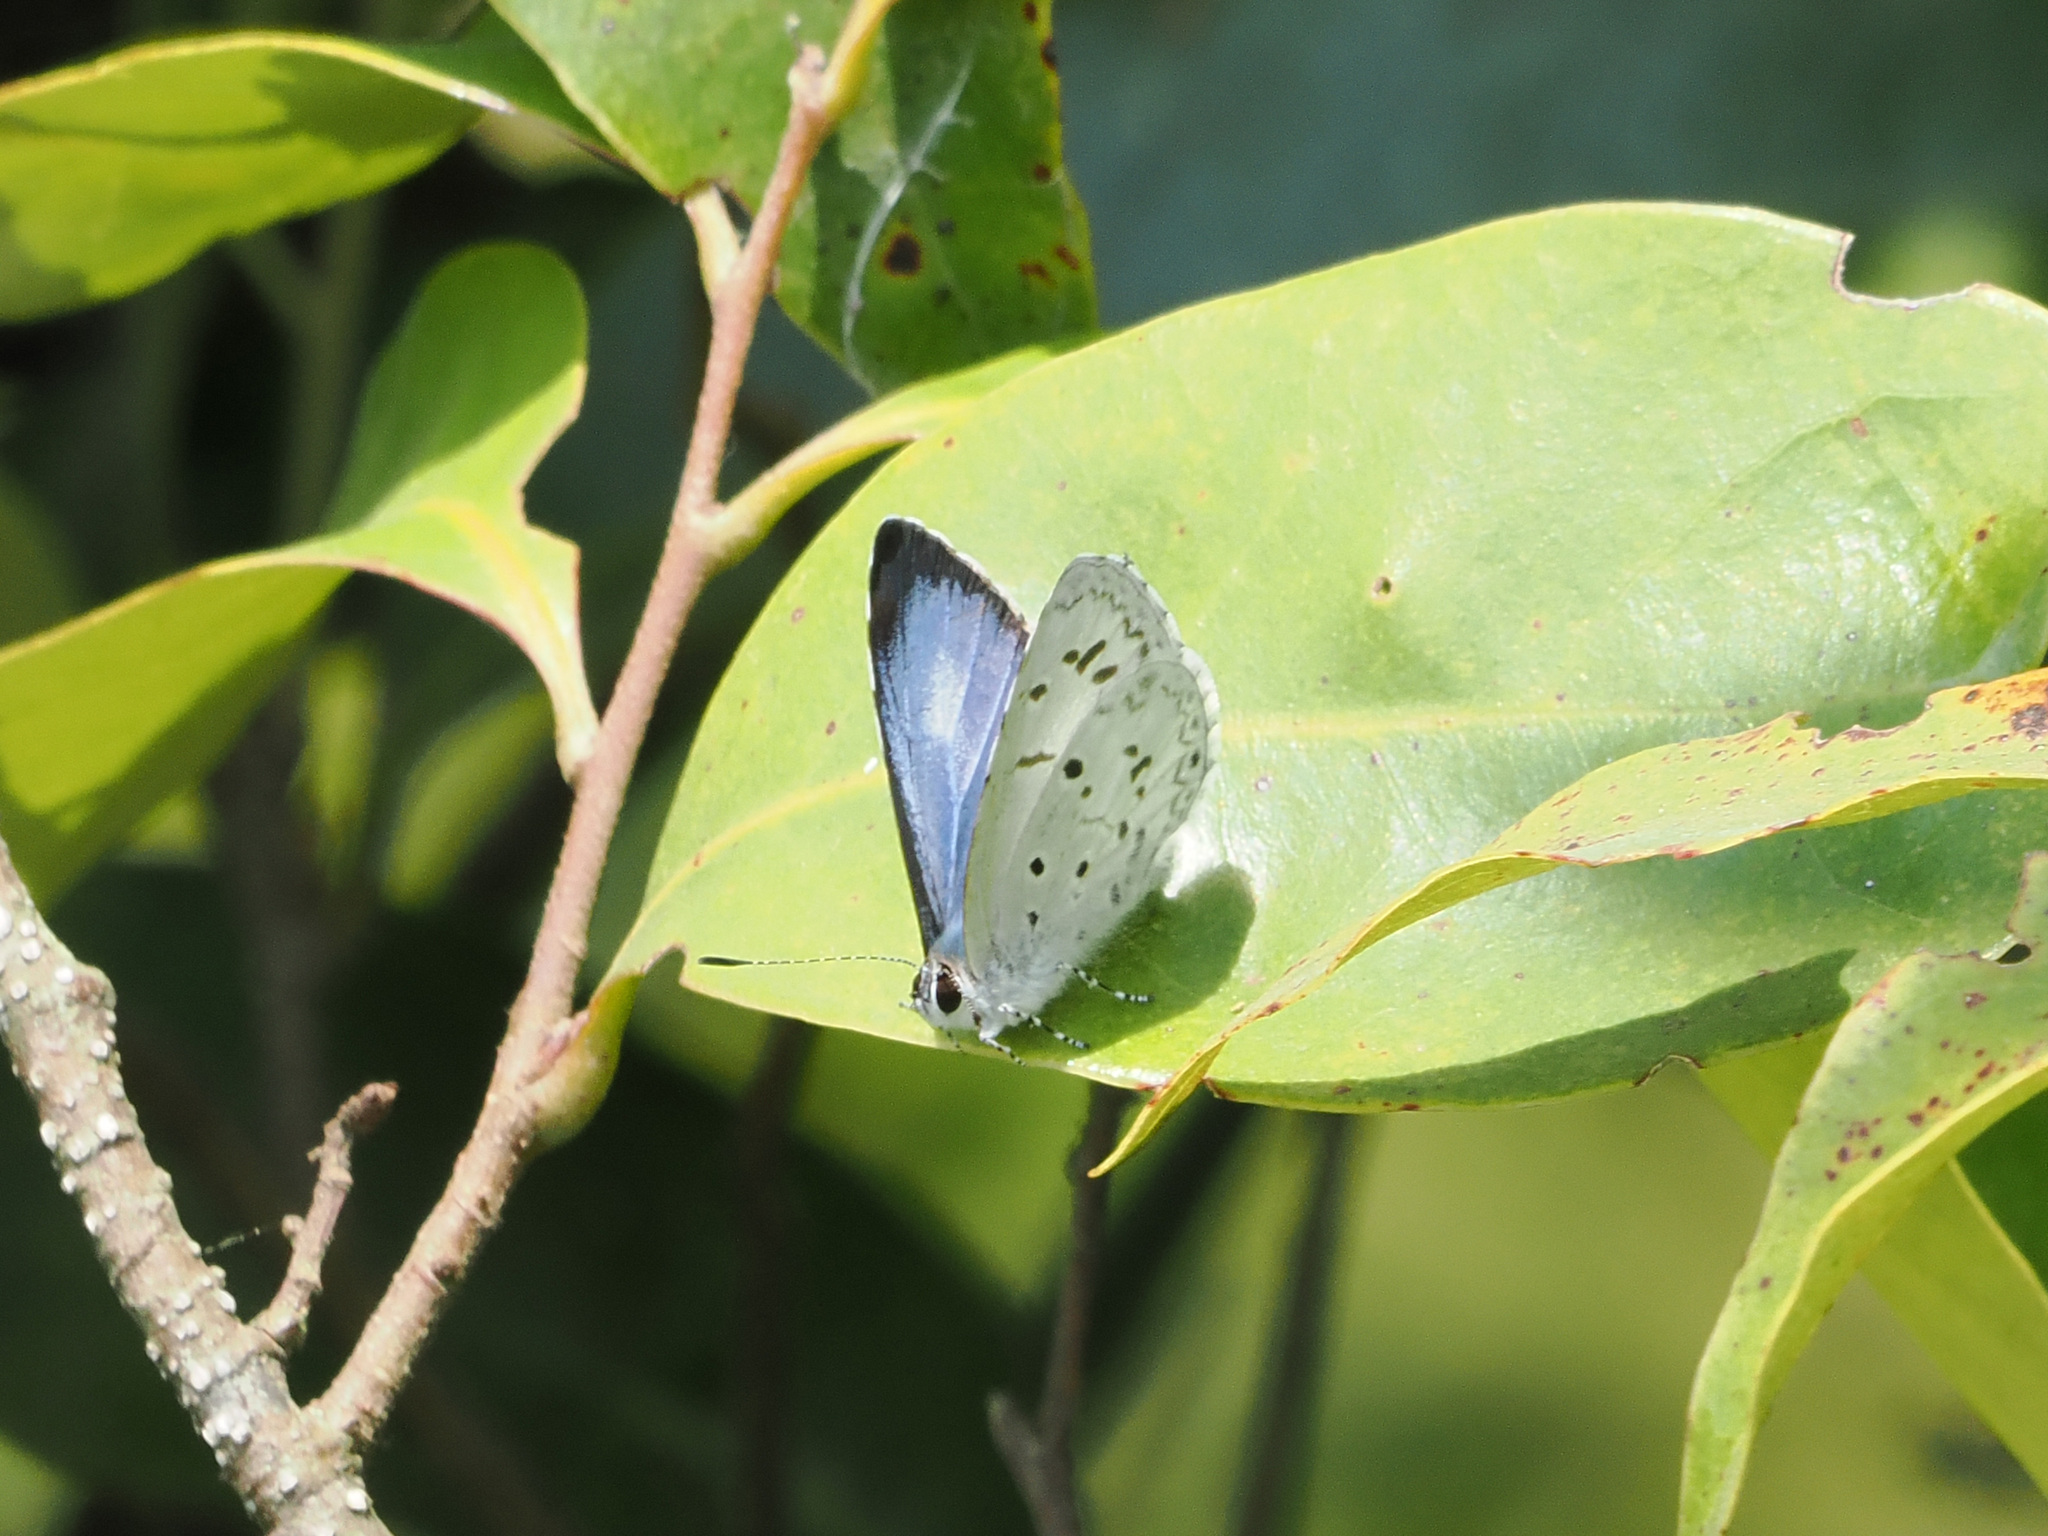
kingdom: Animalia
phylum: Arthropoda
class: Insecta
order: Lepidoptera
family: Lycaenidae
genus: Acytolepis
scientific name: Acytolepis puspa
